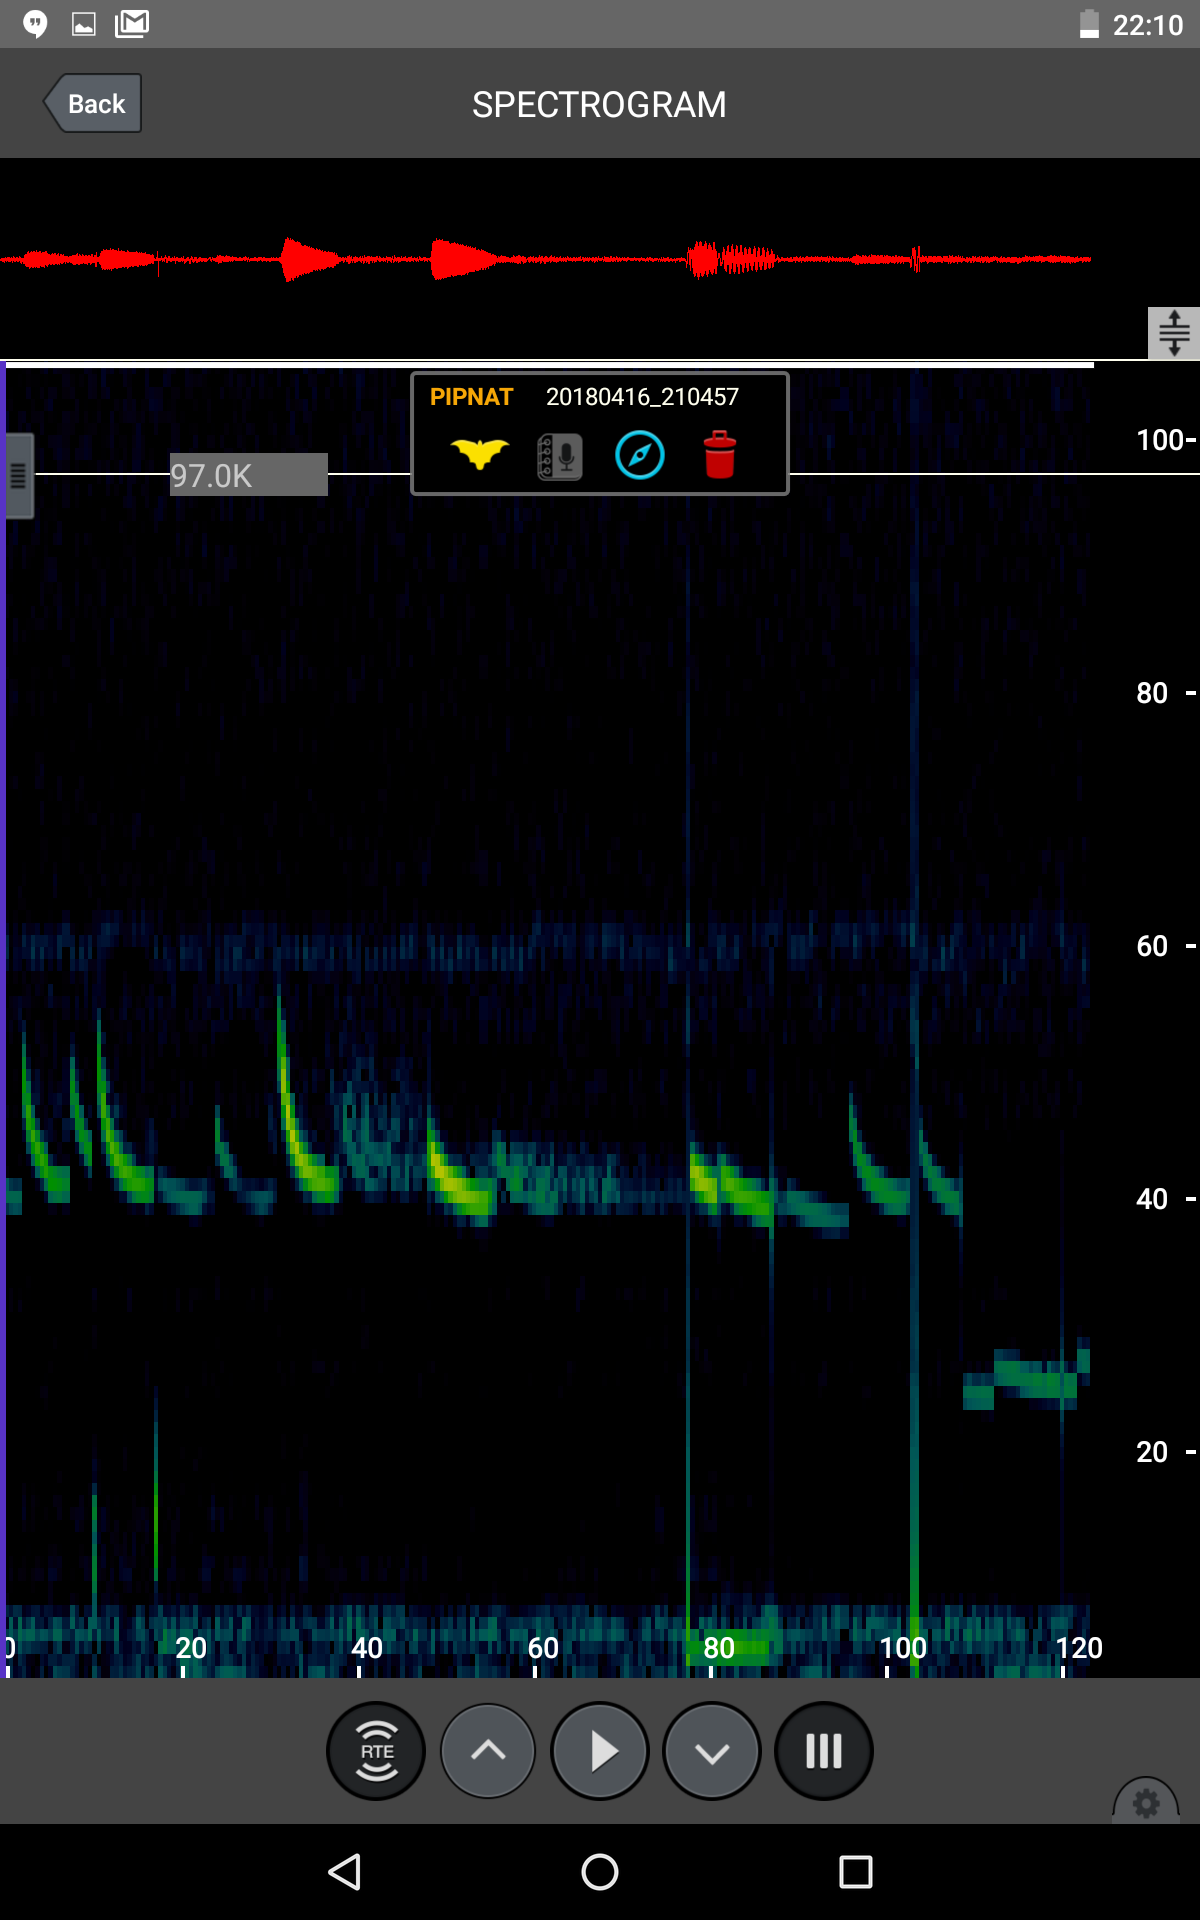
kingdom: Animalia
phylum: Chordata
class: Mammalia
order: Chiroptera
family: Vespertilionidae
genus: Pipistrellus
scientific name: Pipistrellus nathusii
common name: Nathusius's pipistrelle
